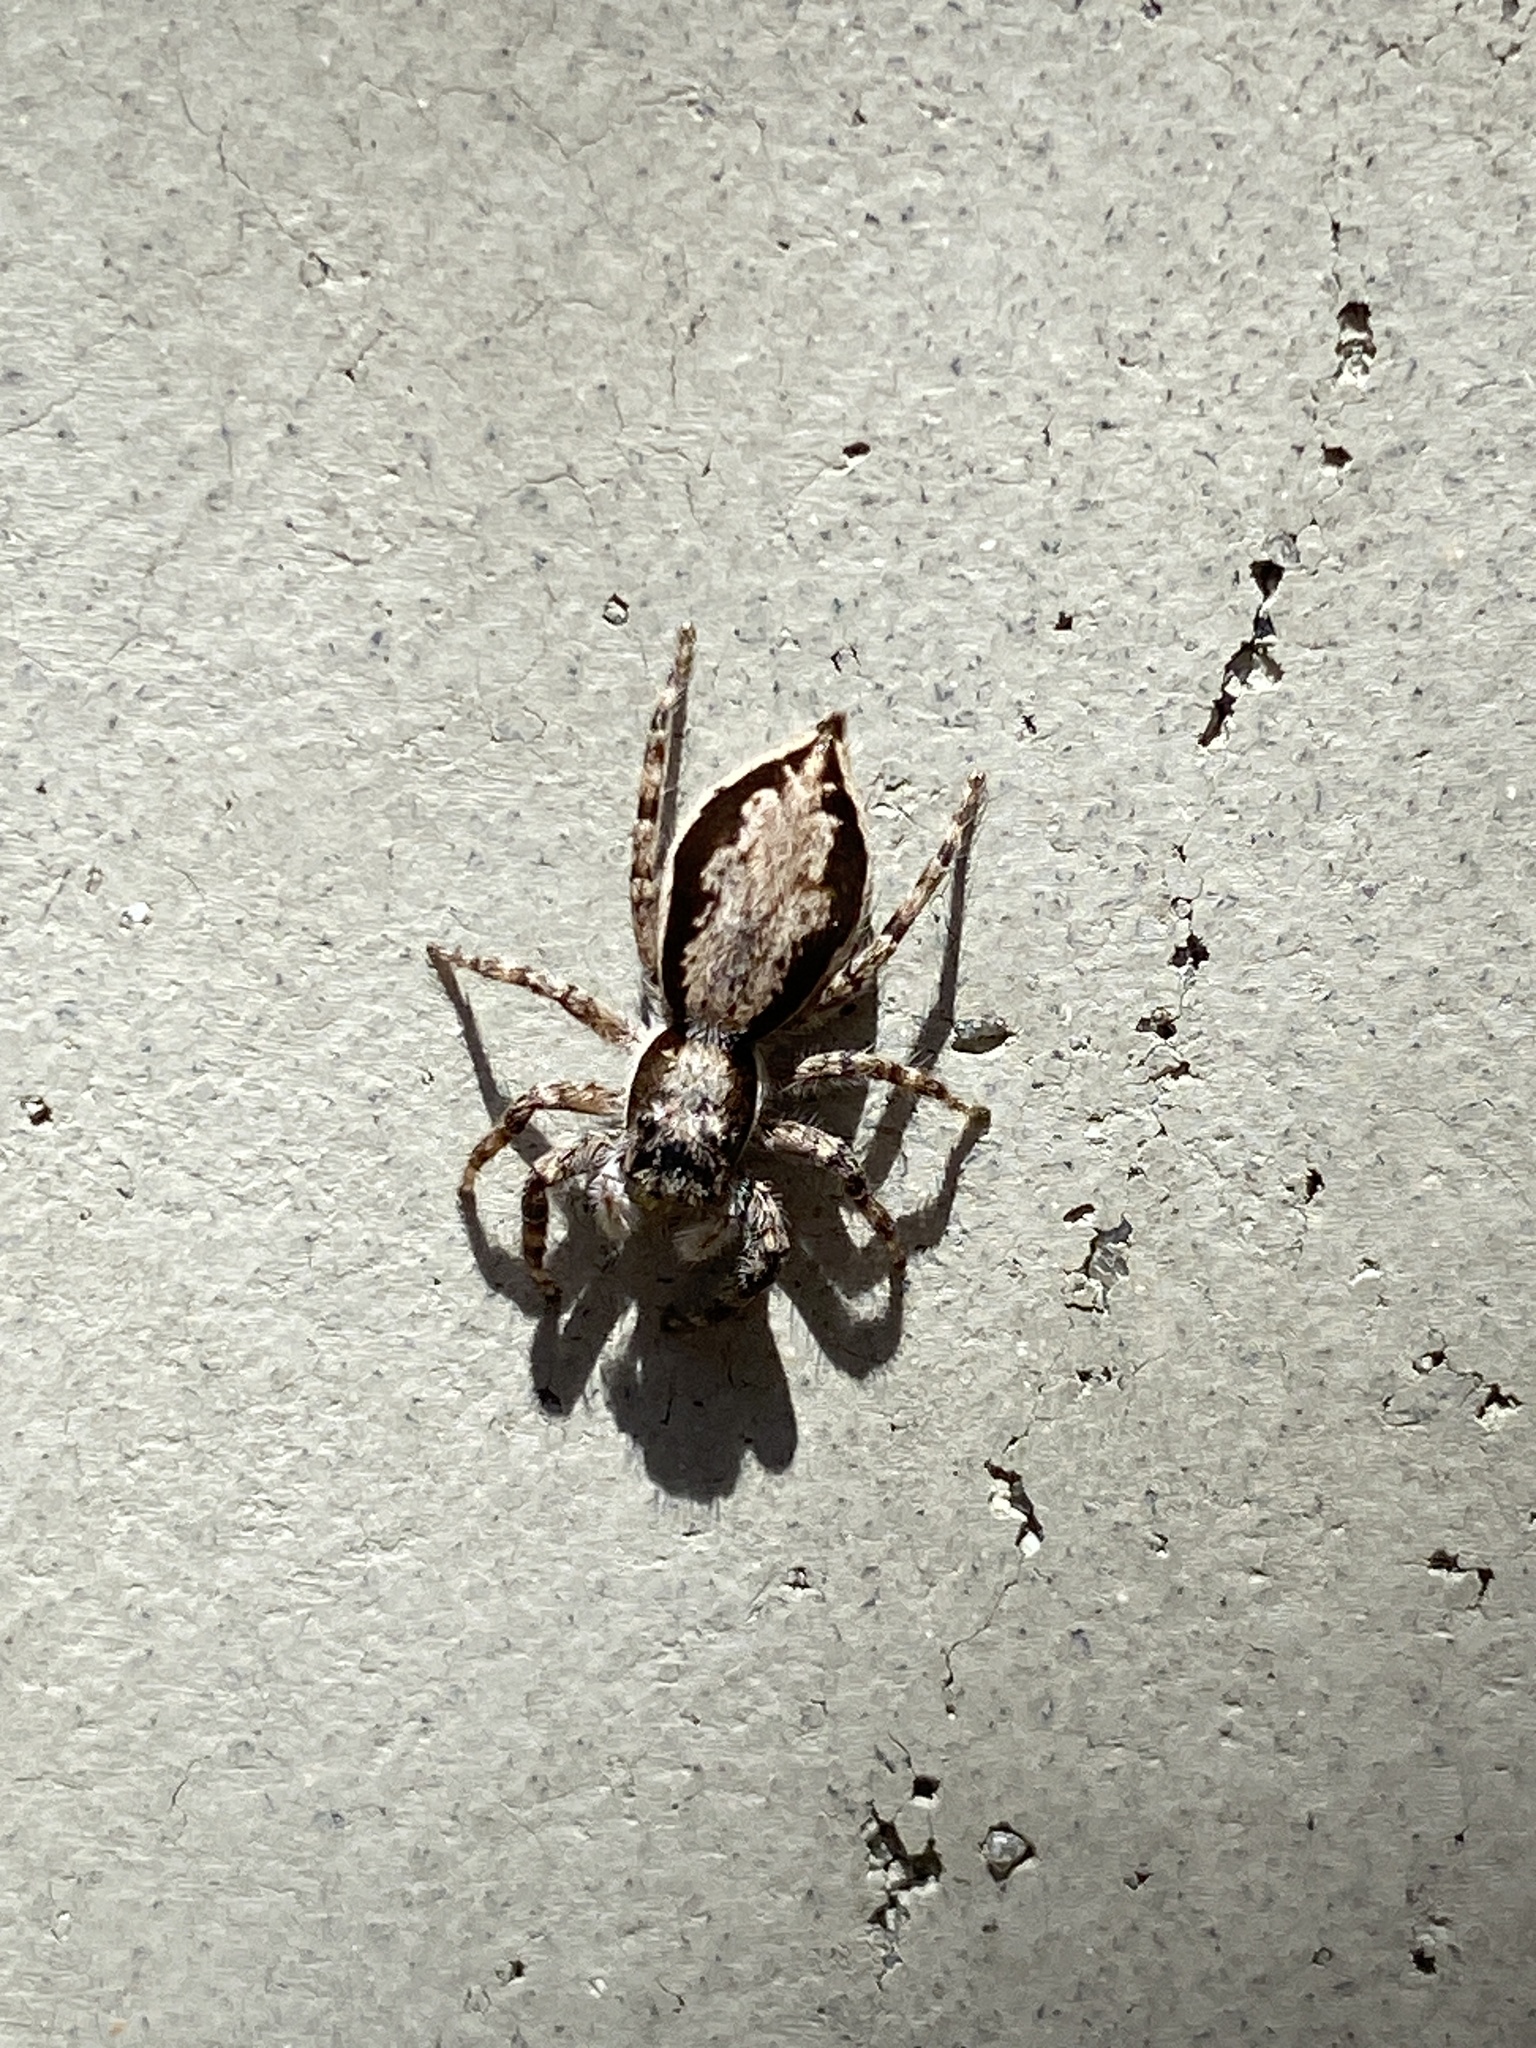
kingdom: Animalia
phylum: Arthropoda
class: Arachnida
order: Araneae
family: Salticidae
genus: Menemerus
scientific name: Menemerus bivittatus
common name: Gray wall jumper
